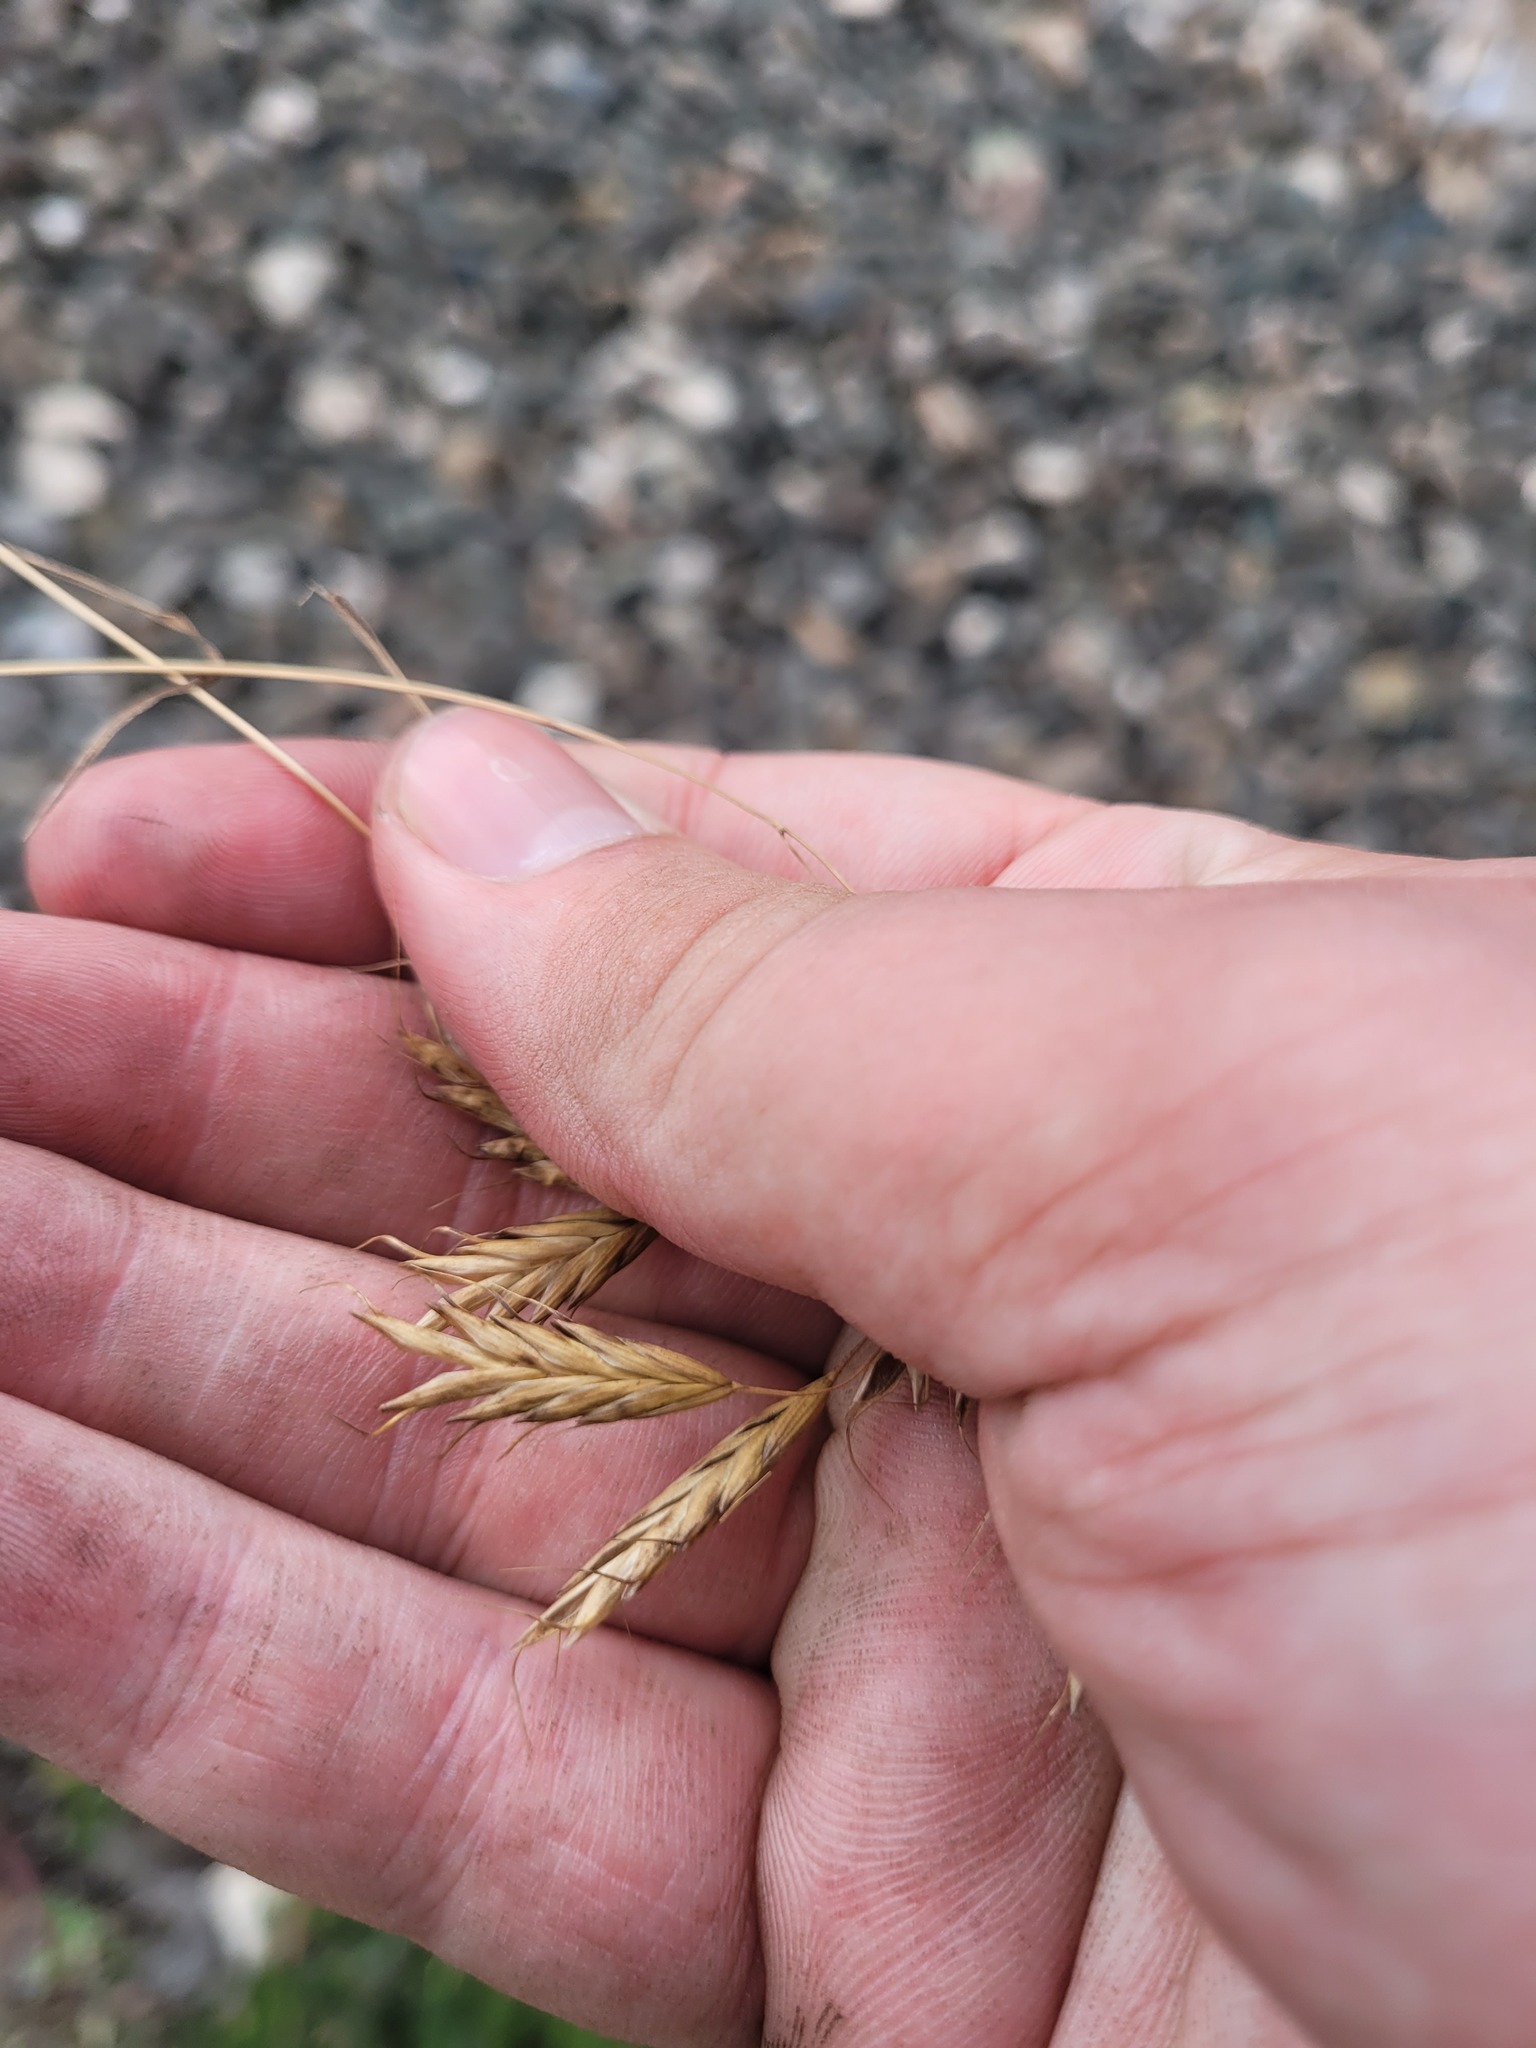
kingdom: Plantae
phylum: Tracheophyta
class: Liliopsida
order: Poales
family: Poaceae
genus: Bromus
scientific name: Bromus japonicus
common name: Japanese brome
